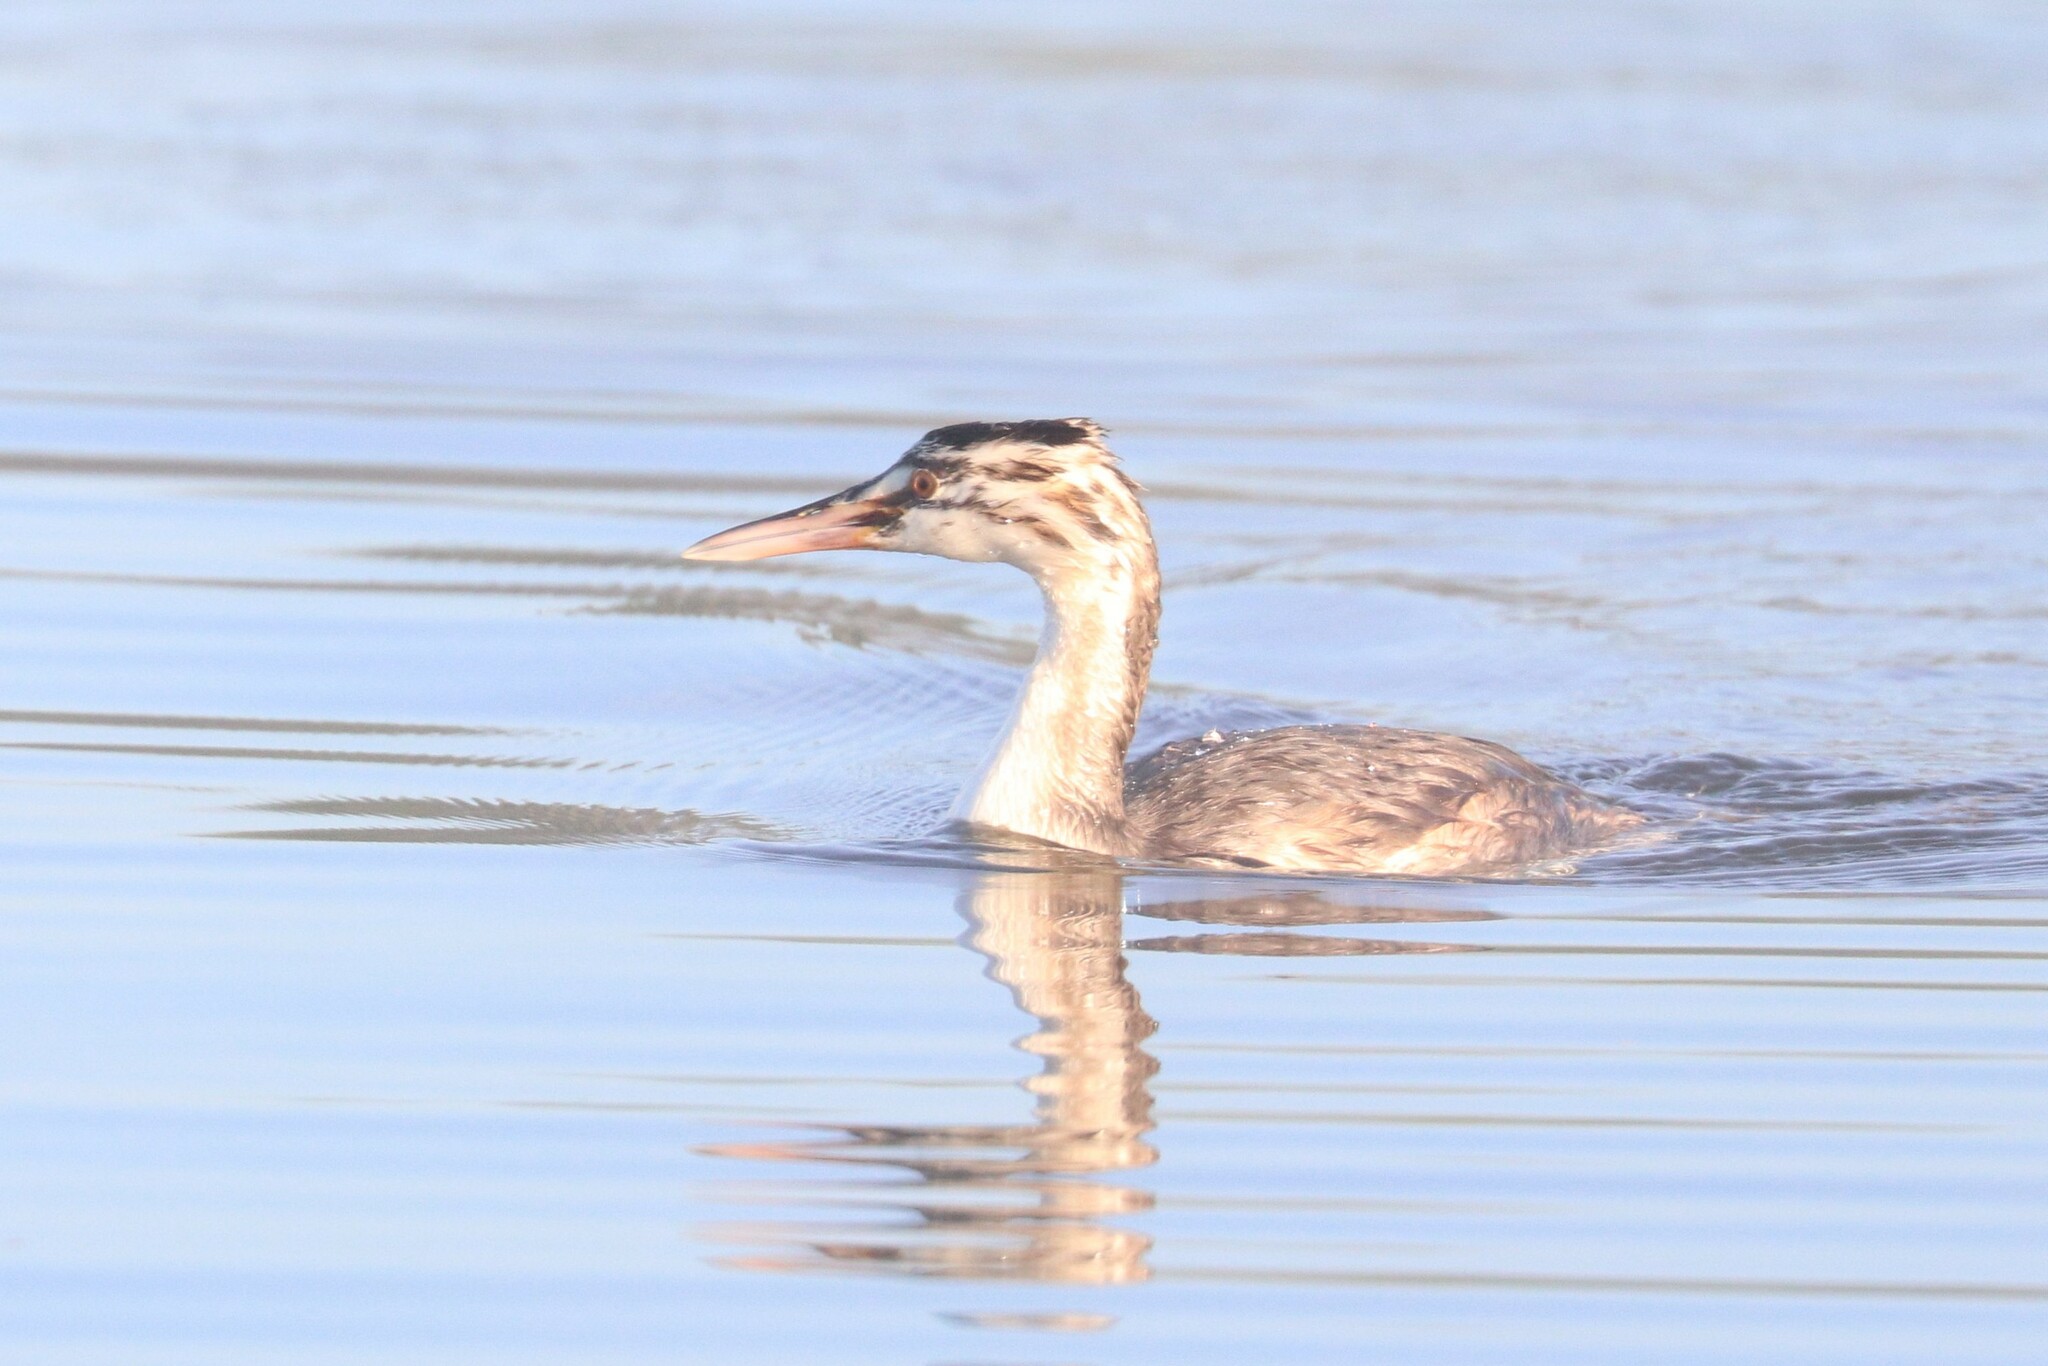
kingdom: Animalia
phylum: Chordata
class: Aves
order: Podicipediformes
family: Podicipedidae
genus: Podiceps
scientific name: Podiceps cristatus
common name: Great crested grebe
